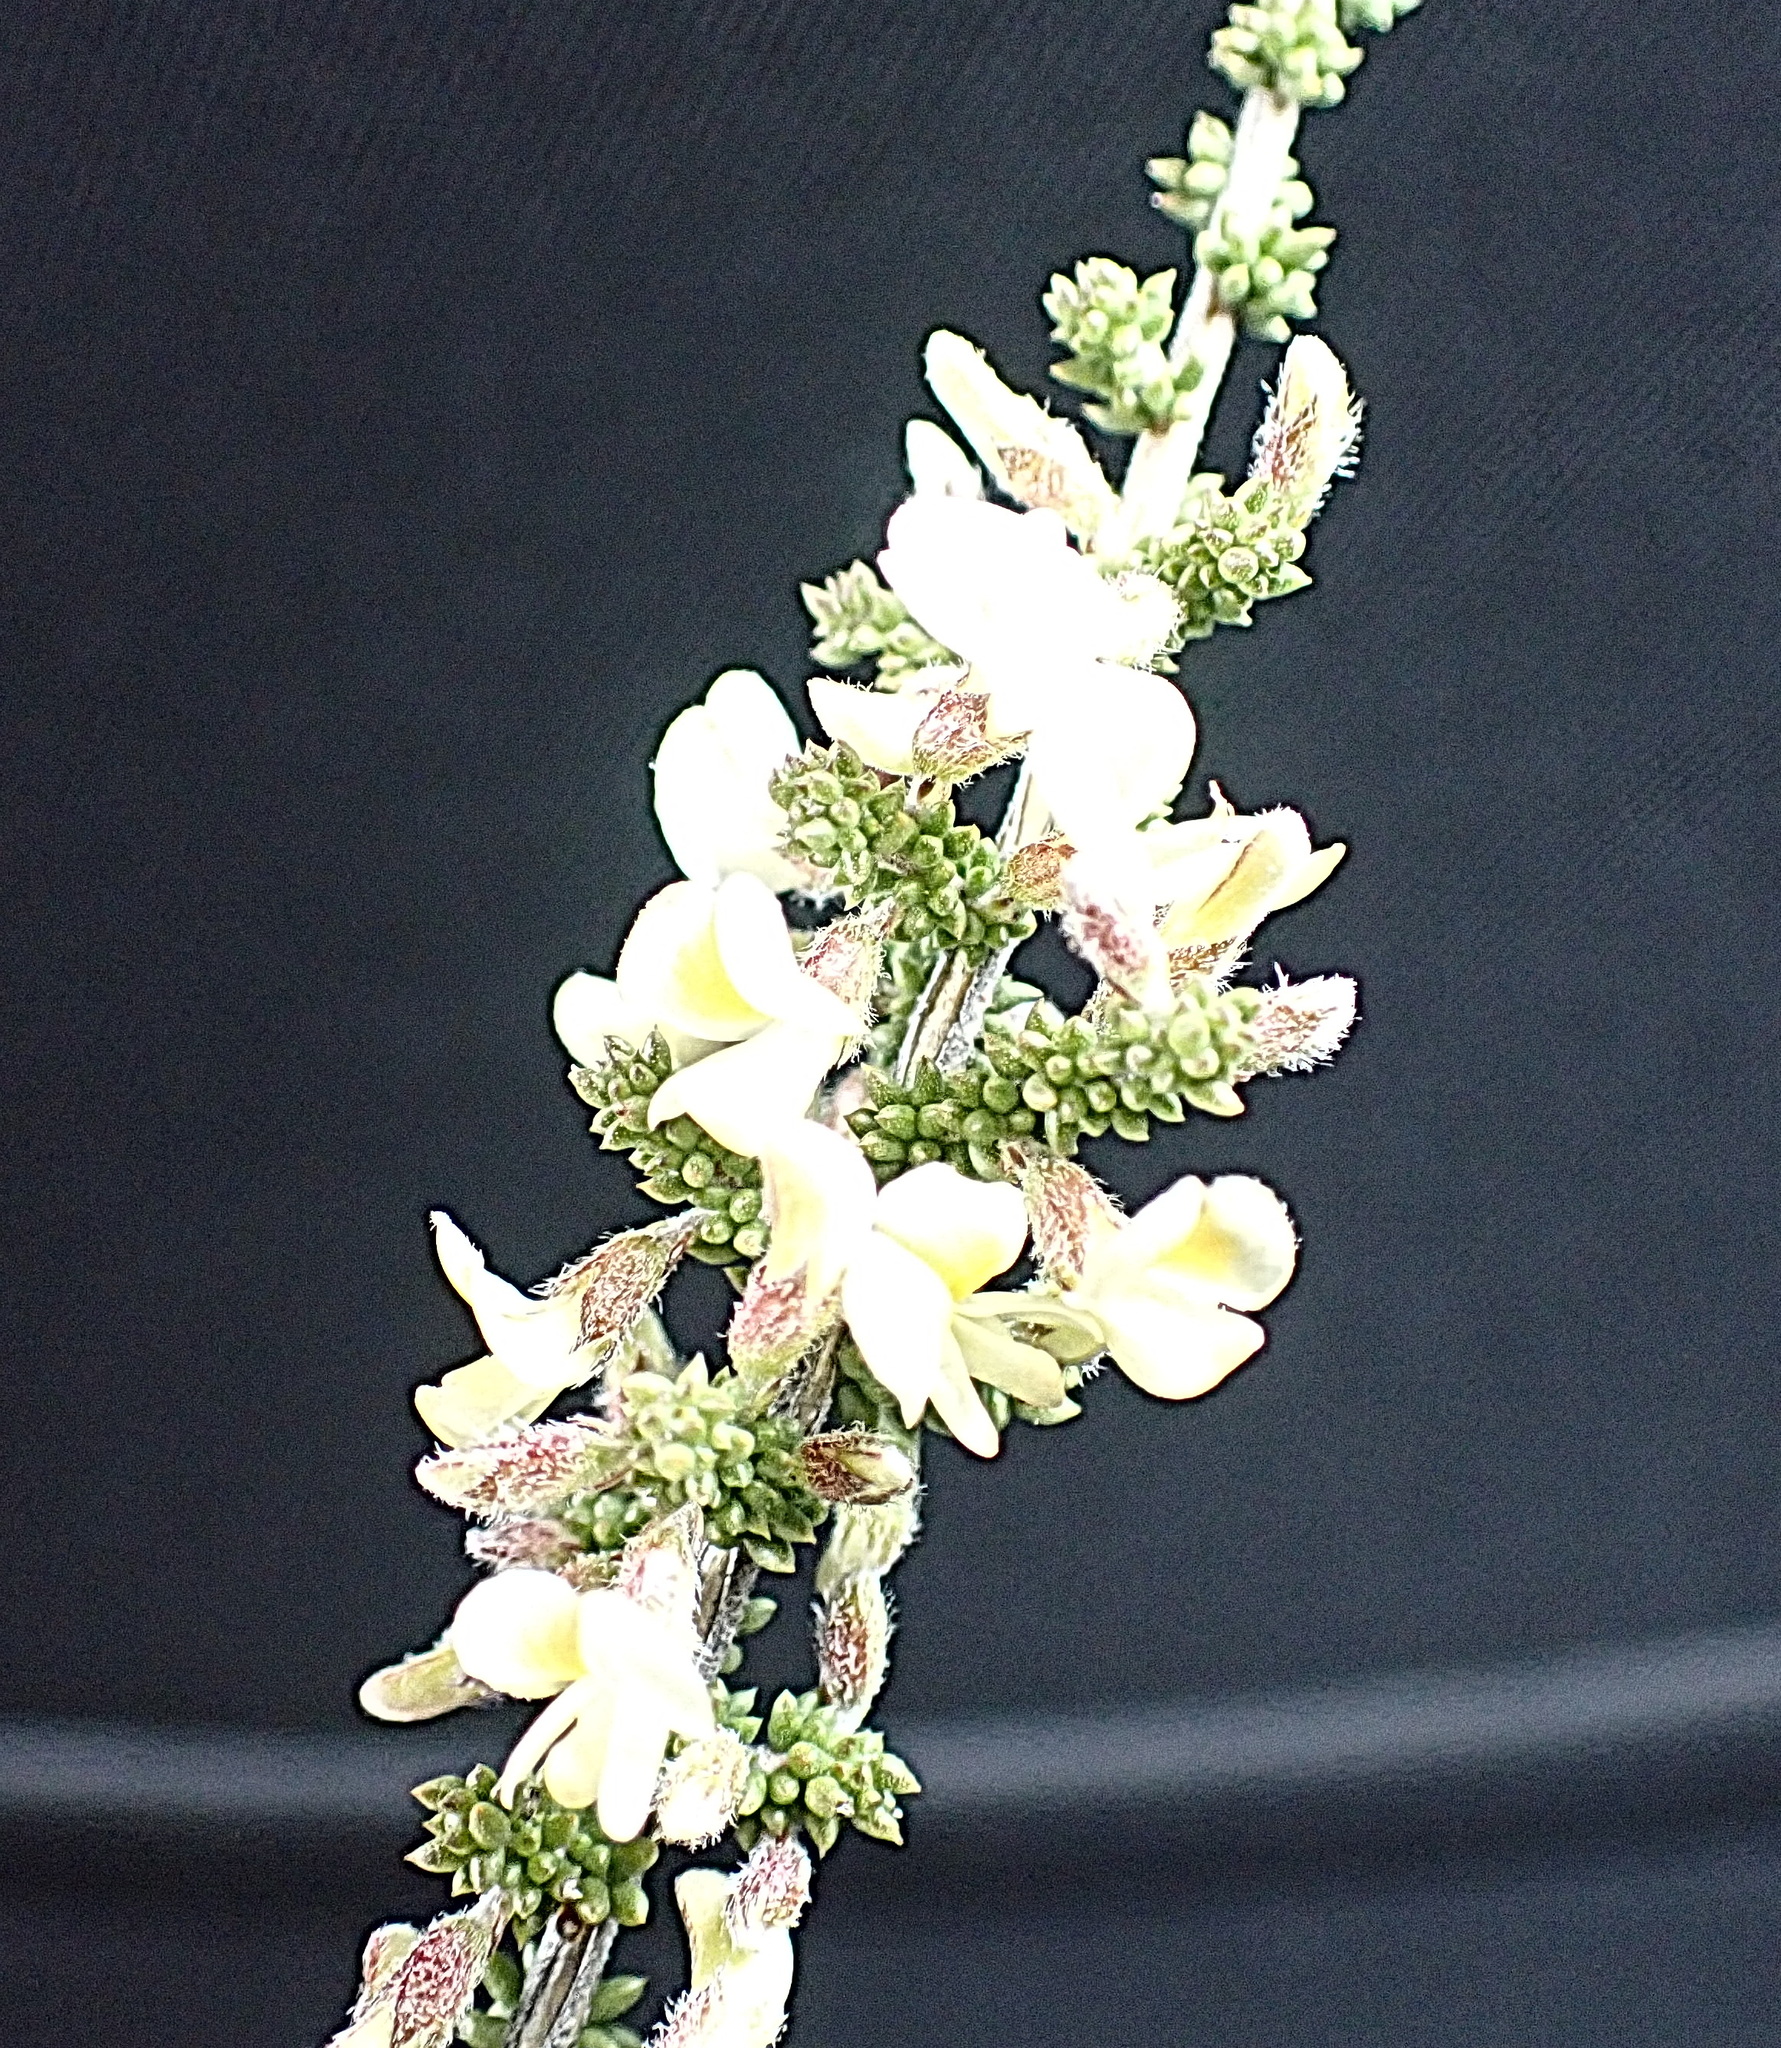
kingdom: Plantae
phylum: Tracheophyta
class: Magnoliopsida
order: Fabales
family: Fabaceae
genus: Aspalathus
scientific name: Aspalathus granulata
